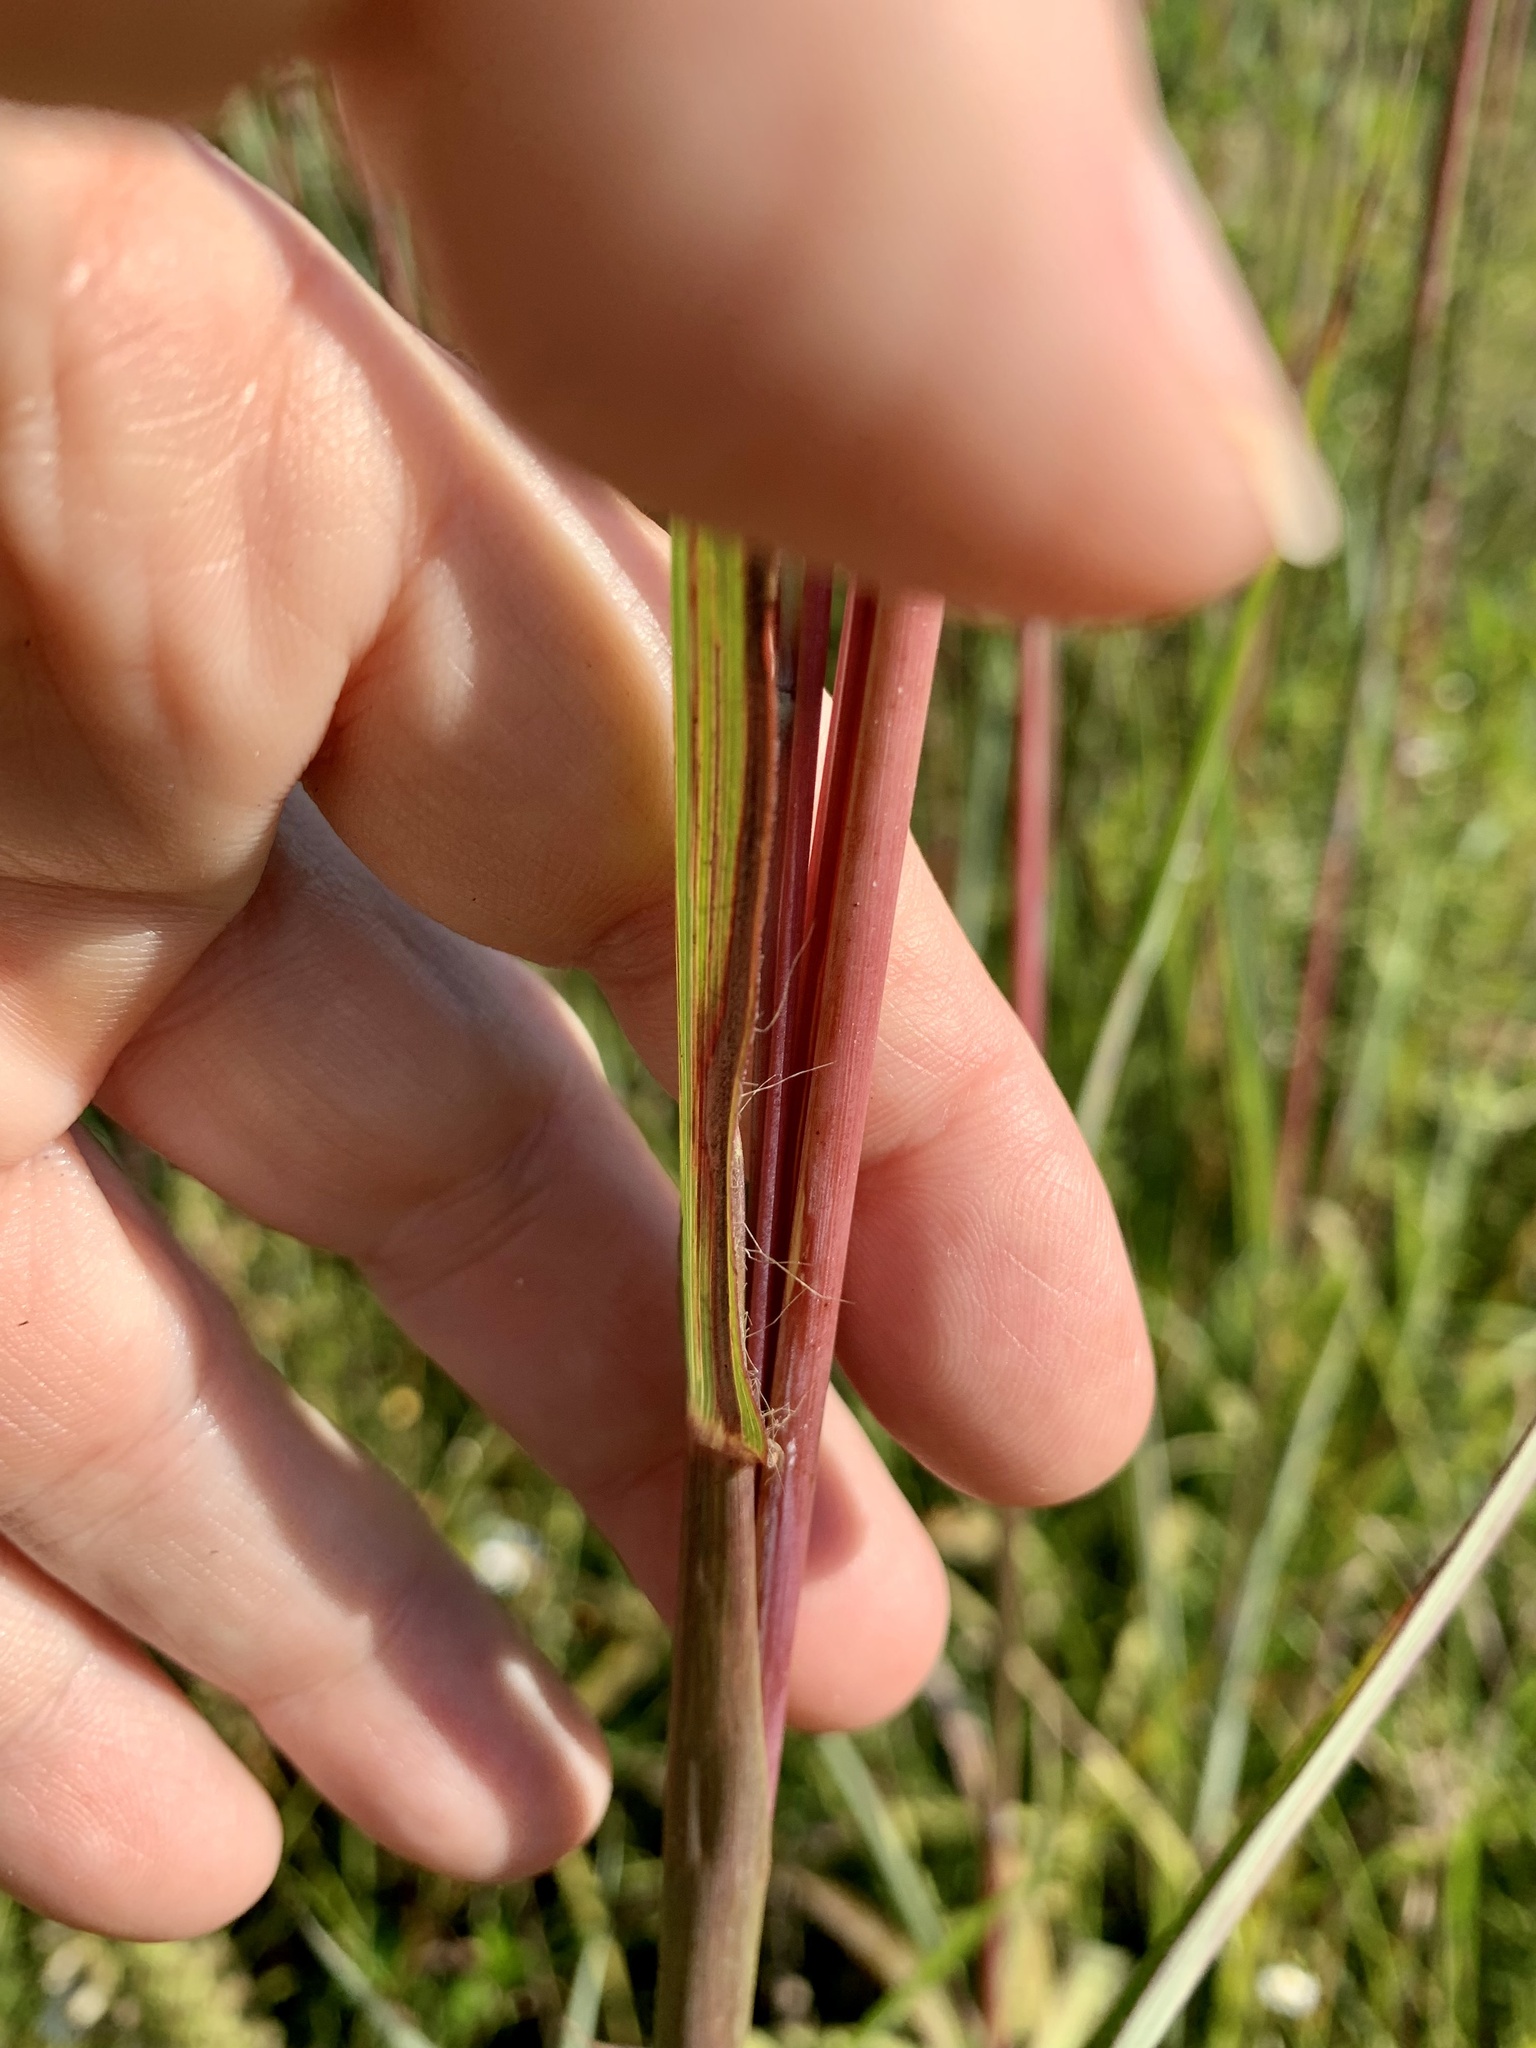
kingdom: Plantae
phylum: Tracheophyta
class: Liliopsida
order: Poales
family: Poaceae
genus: Andropogon
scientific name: Andropogon gerardi
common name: Big bluestem
